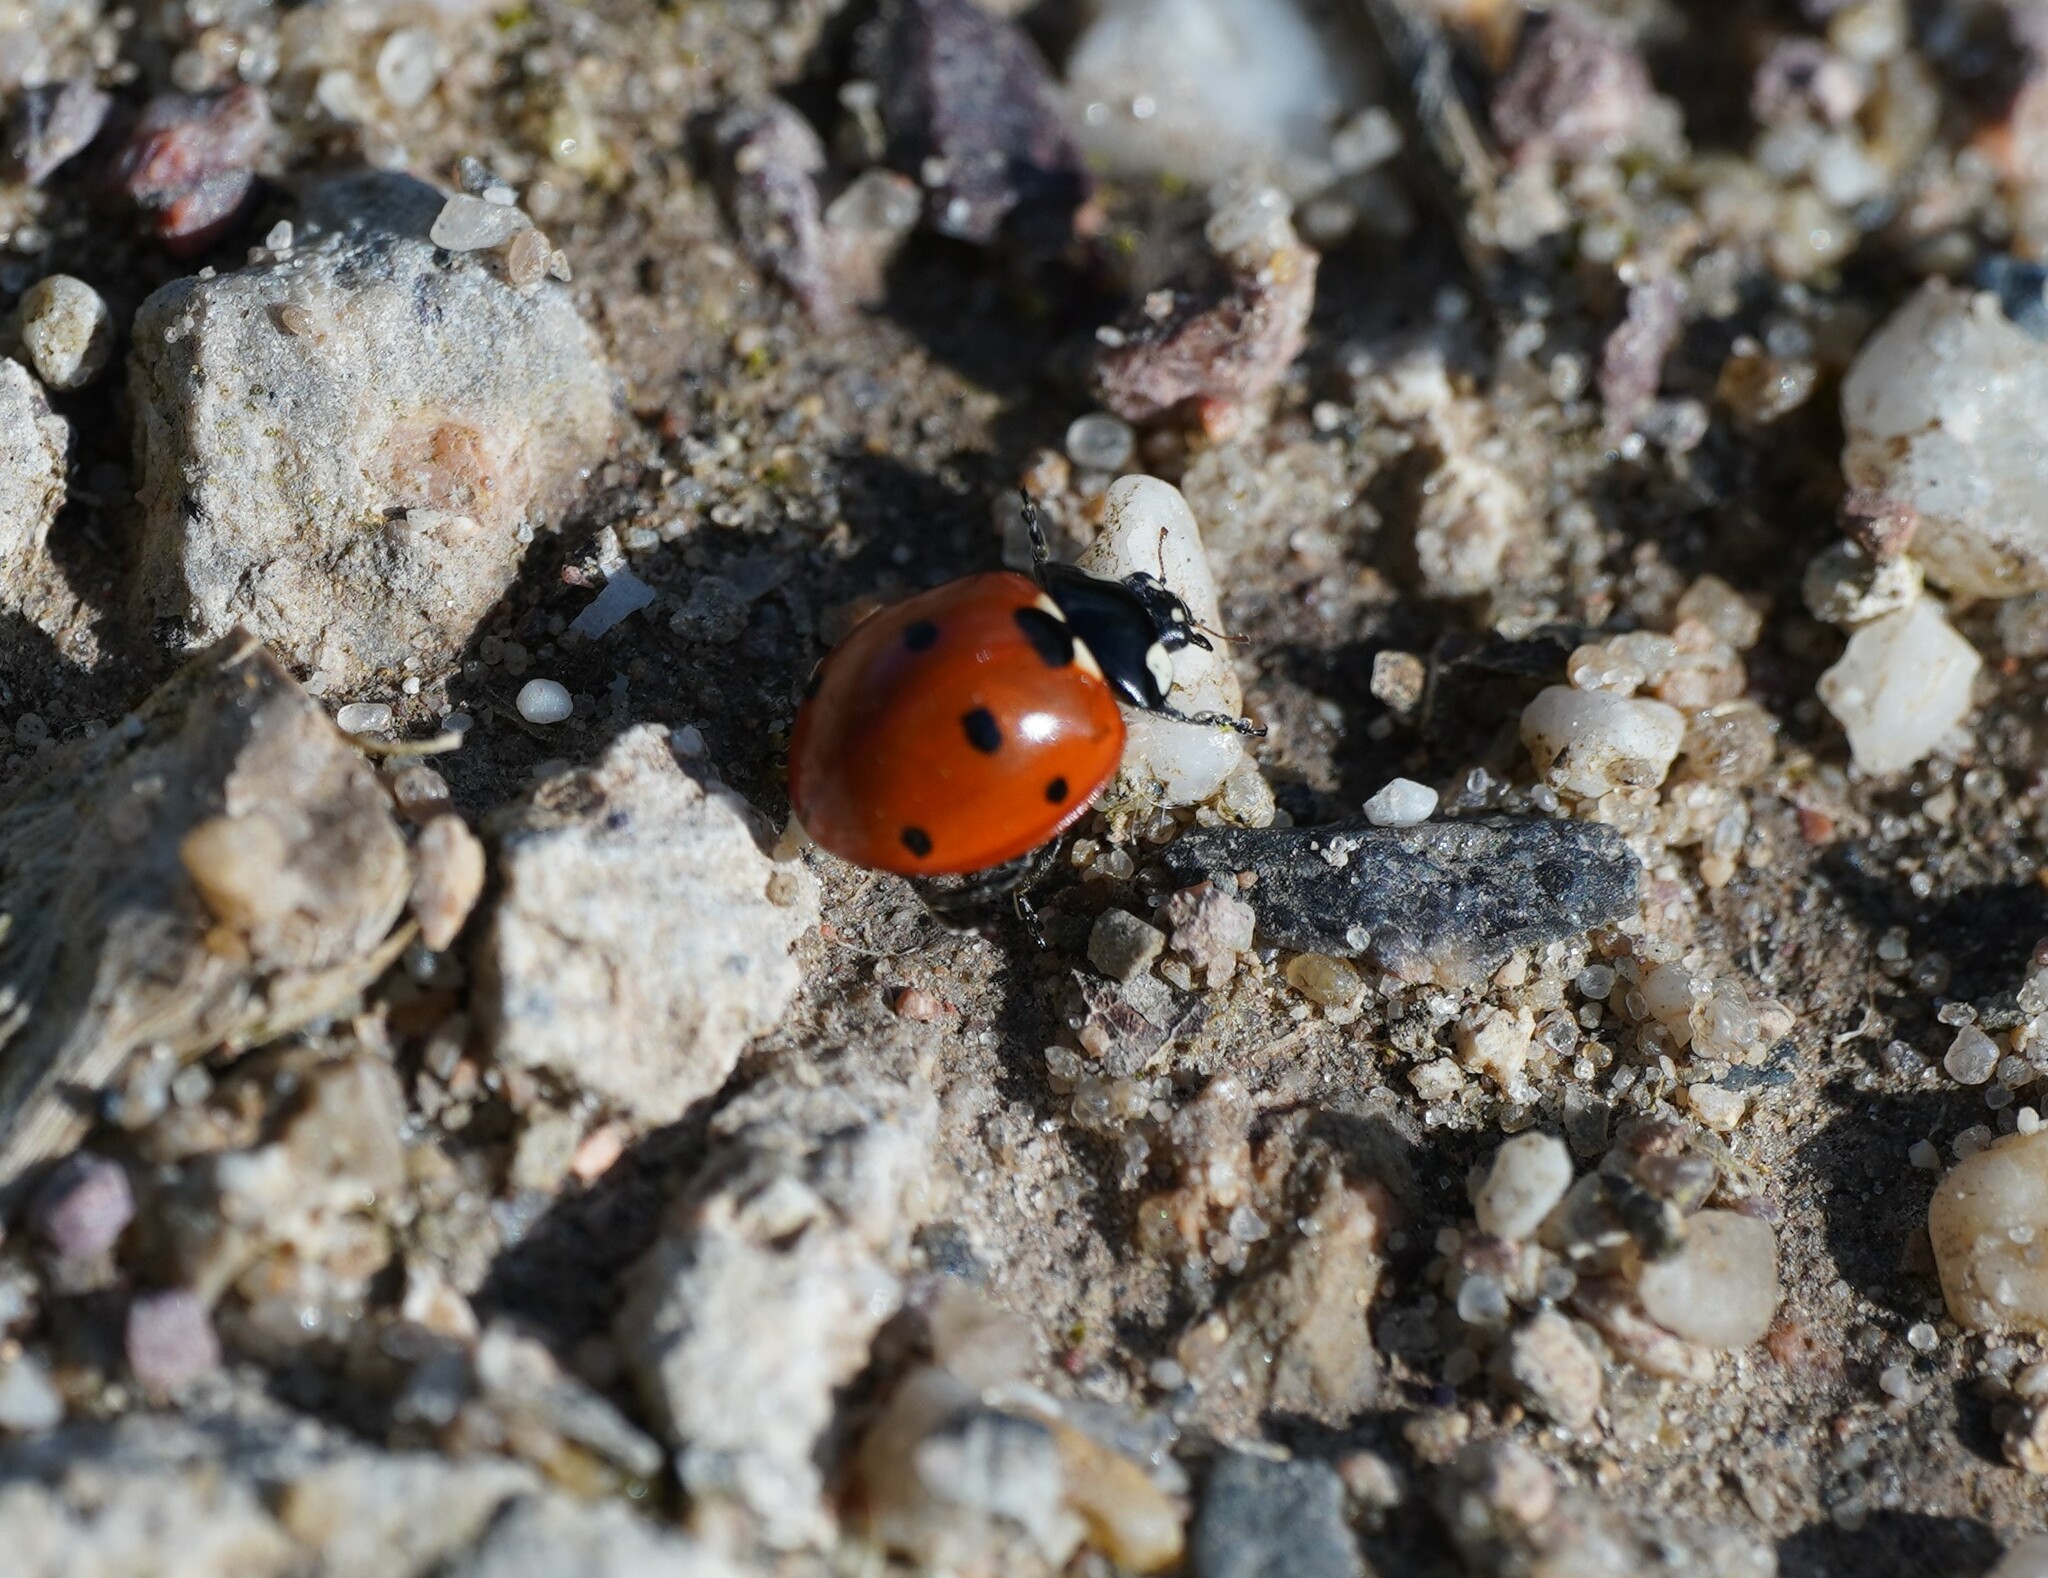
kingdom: Animalia
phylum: Arthropoda
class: Insecta
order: Coleoptera
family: Coccinellidae
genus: Coccinella
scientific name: Coccinella septempunctata
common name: Sevenspotted lady beetle
